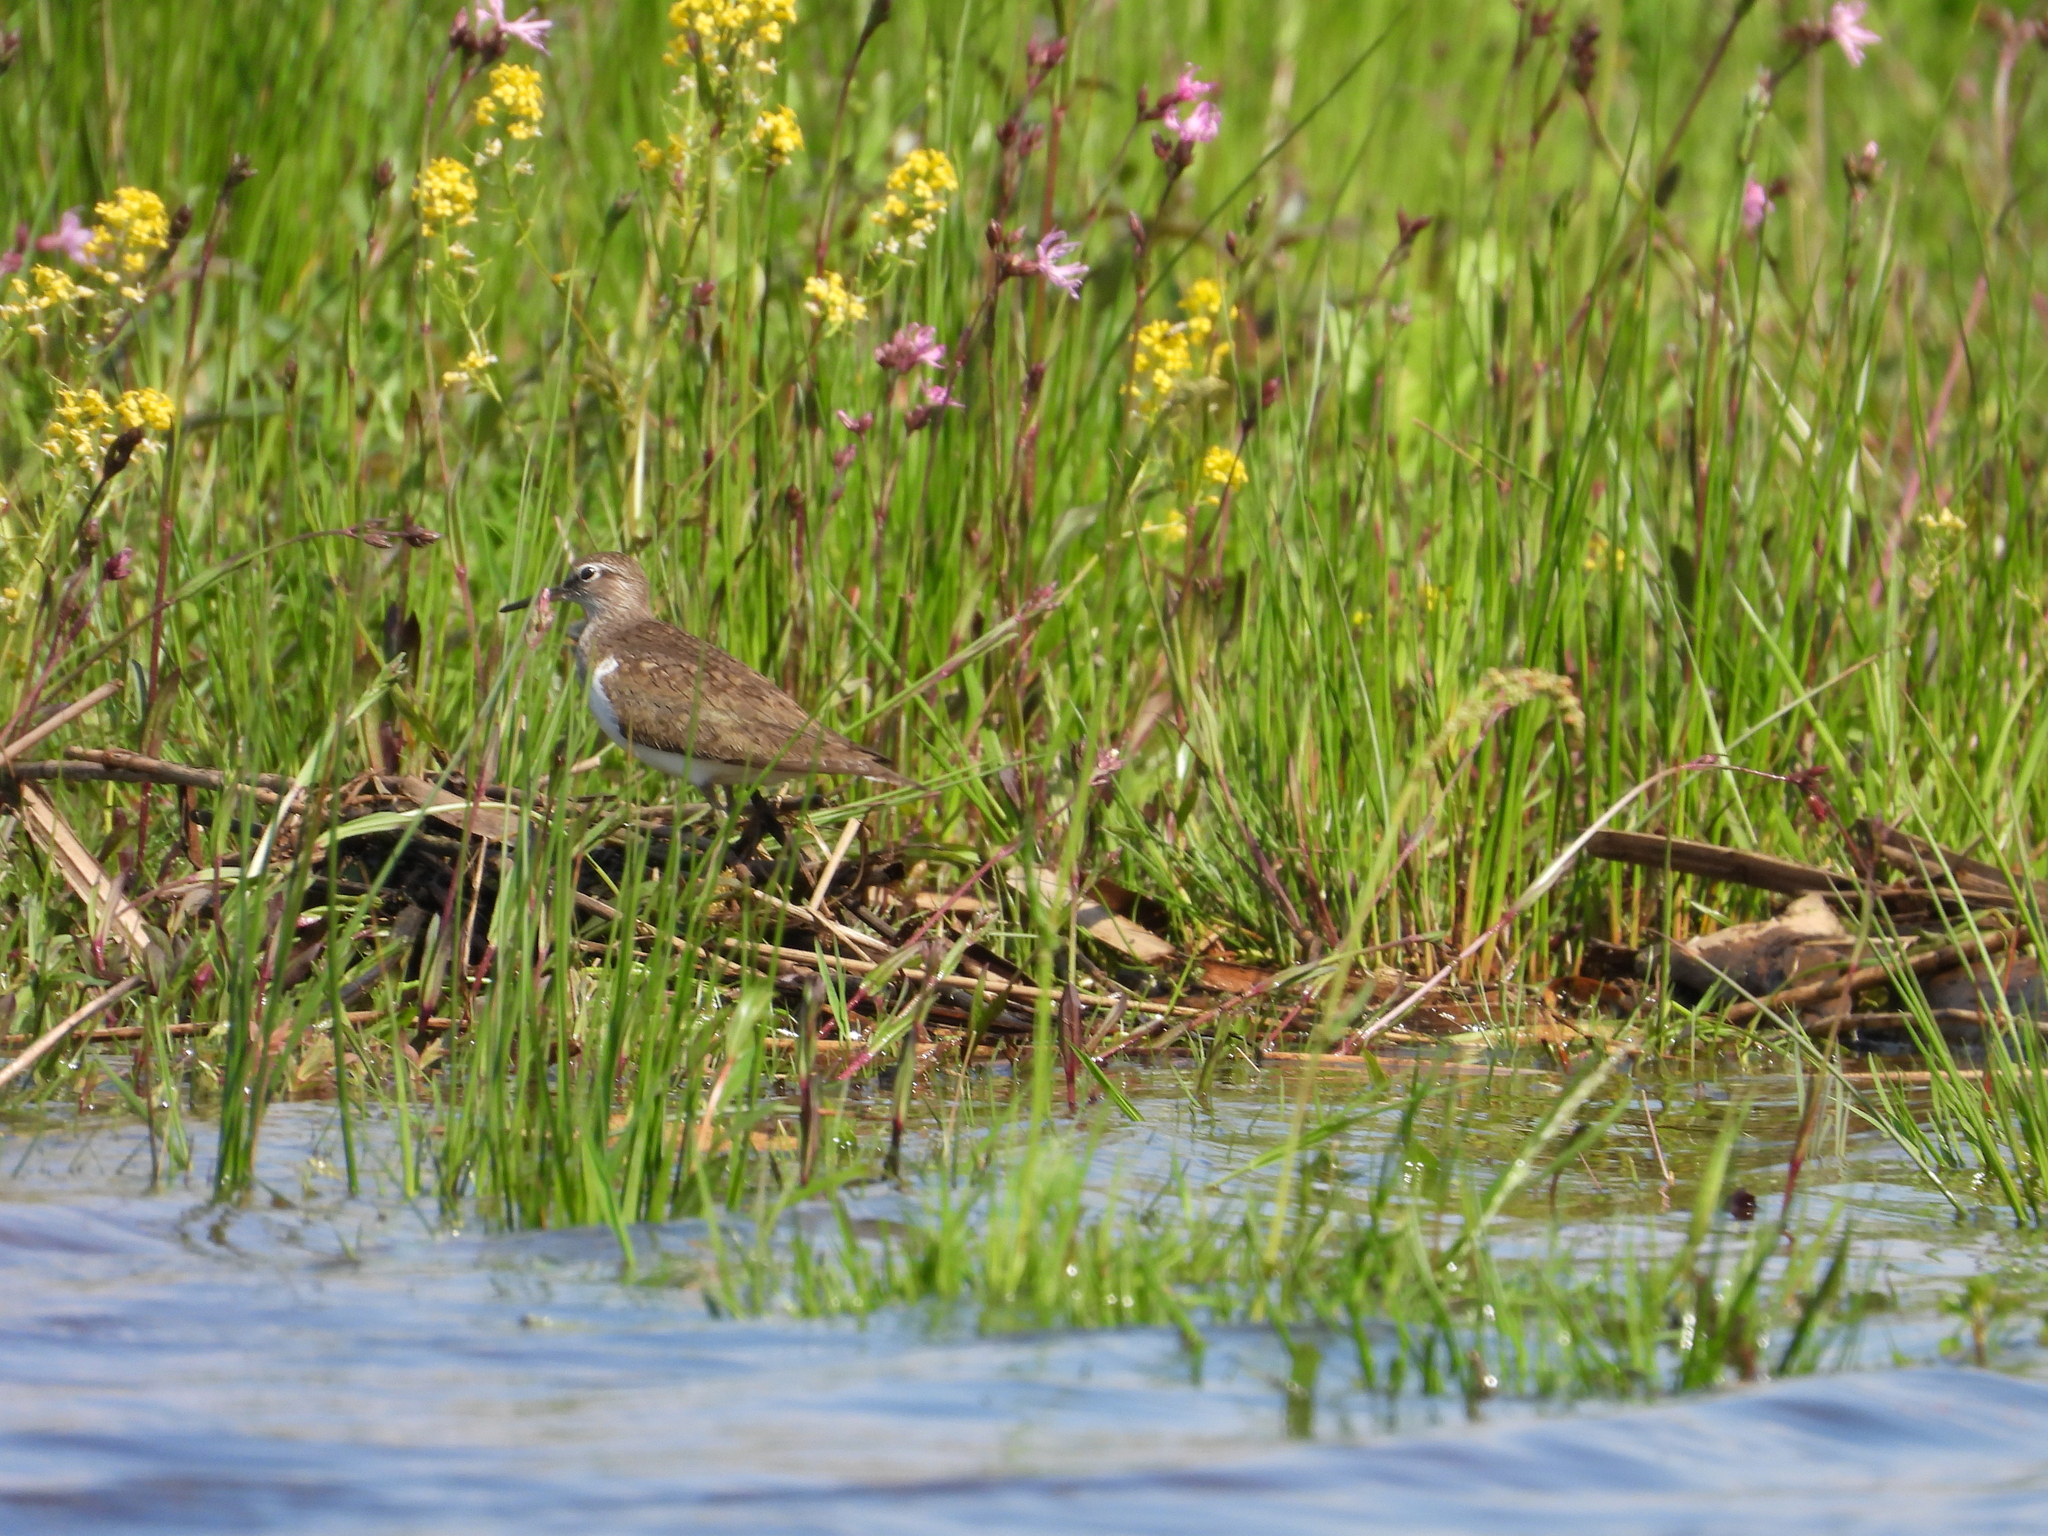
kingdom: Animalia
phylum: Chordata
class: Aves
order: Charadriiformes
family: Scolopacidae
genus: Actitis
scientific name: Actitis hypoleucos
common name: Common sandpiper
